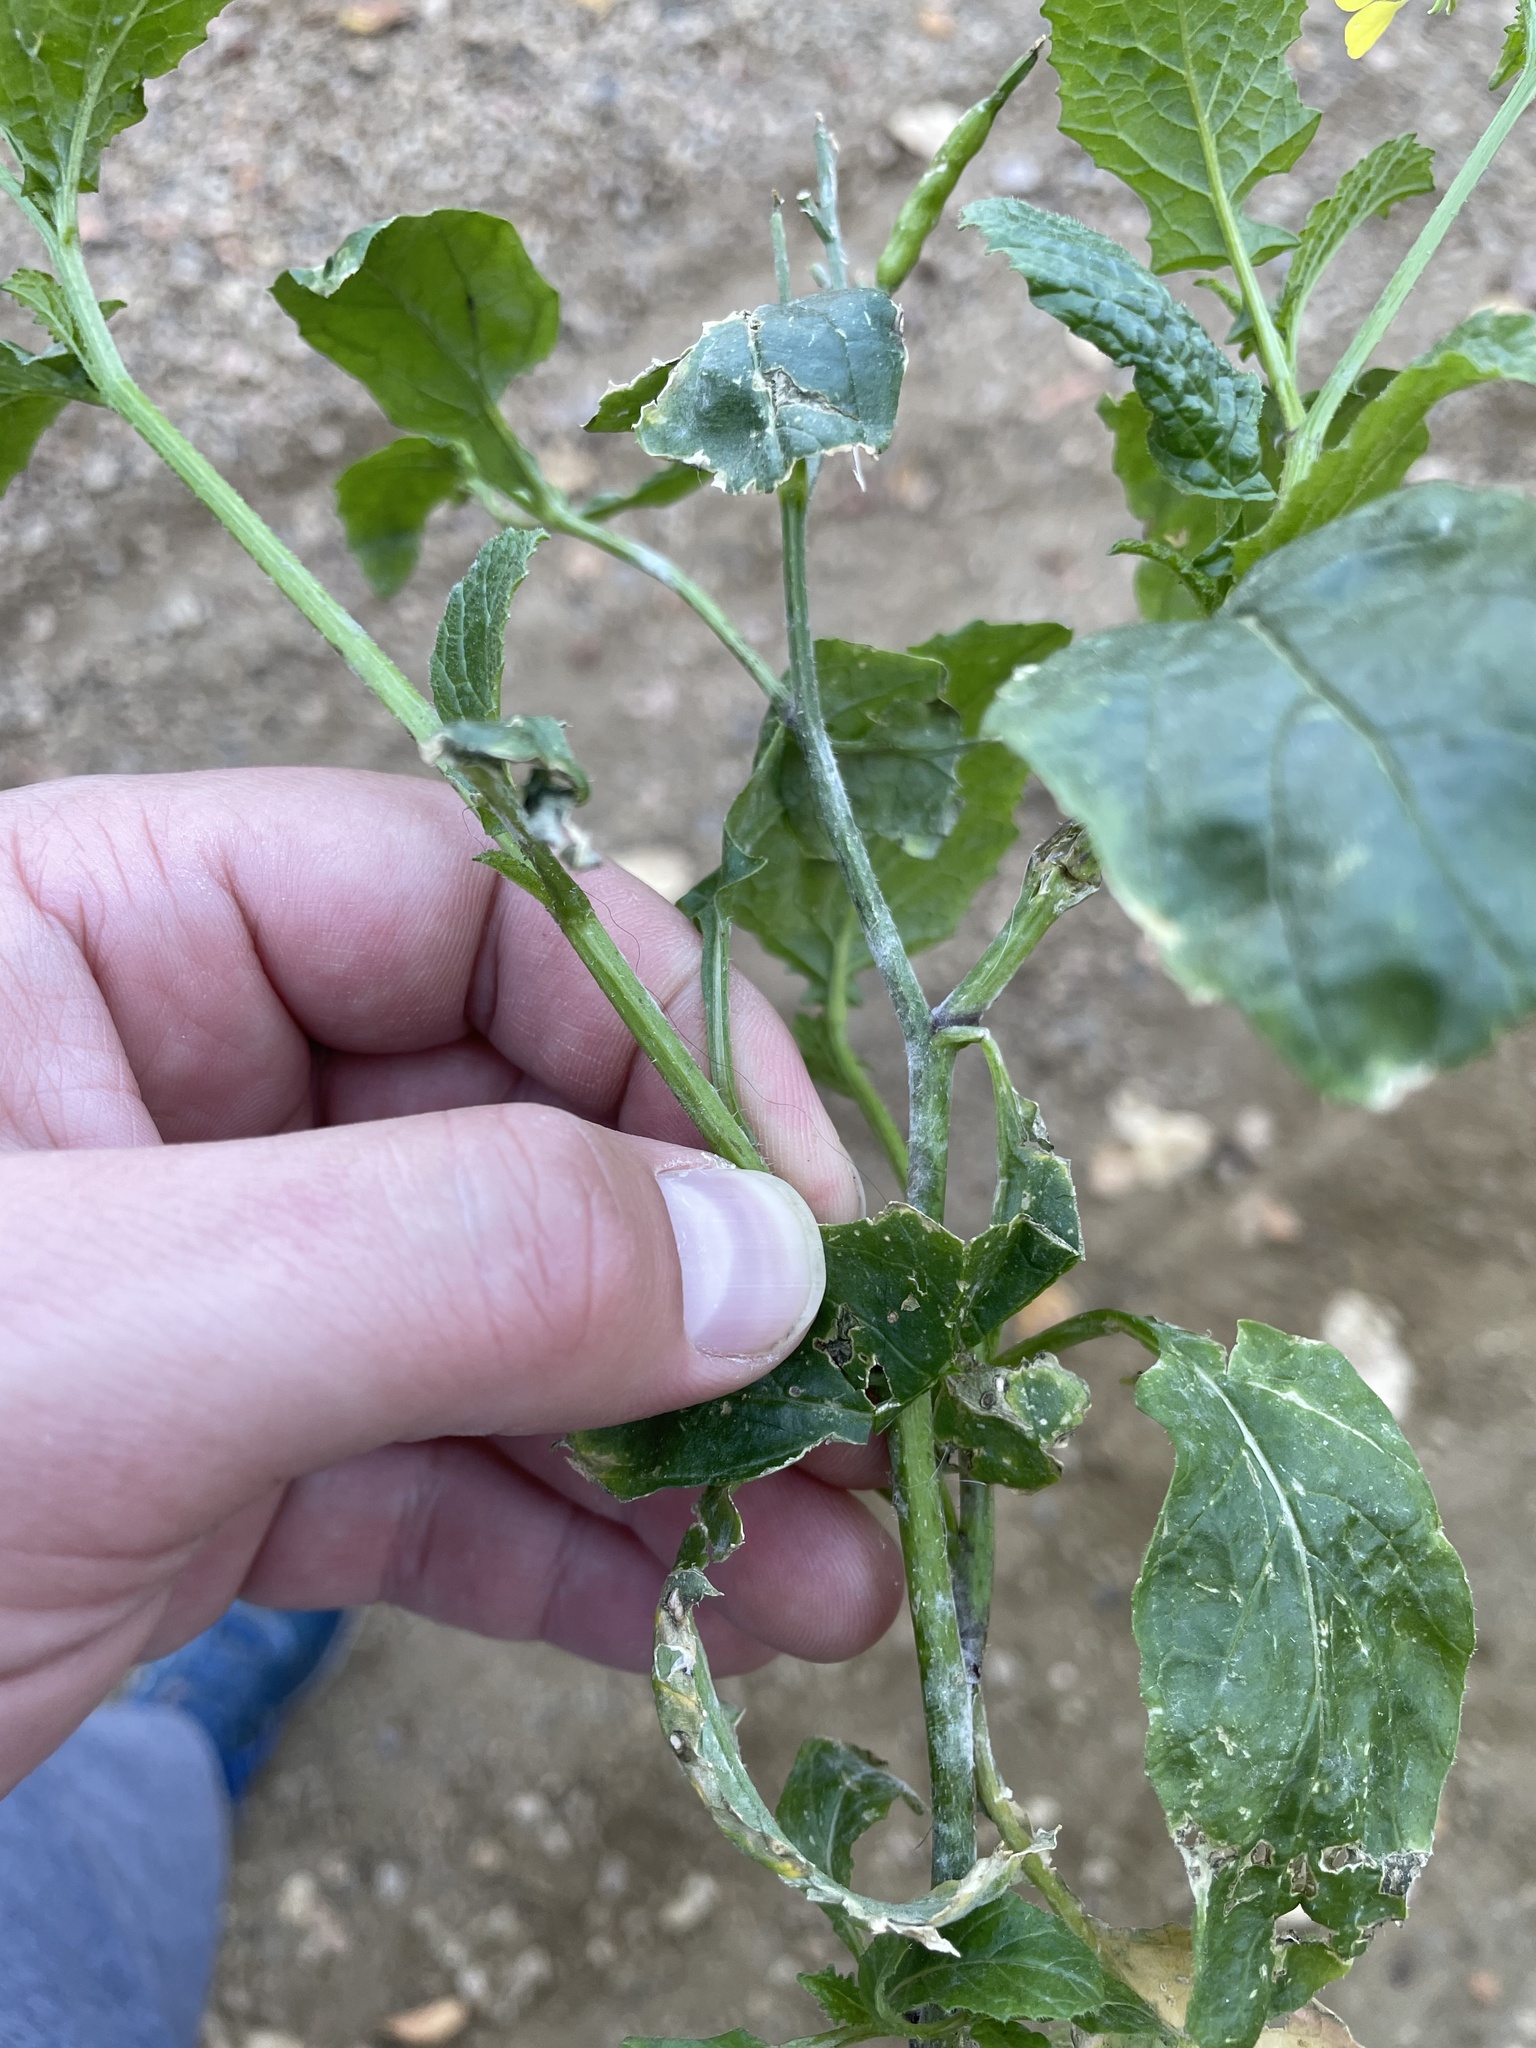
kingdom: Plantae
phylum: Tracheophyta
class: Magnoliopsida
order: Brassicales
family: Brassicaceae
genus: Sinapis
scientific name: Sinapis arvensis
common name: Charlock
